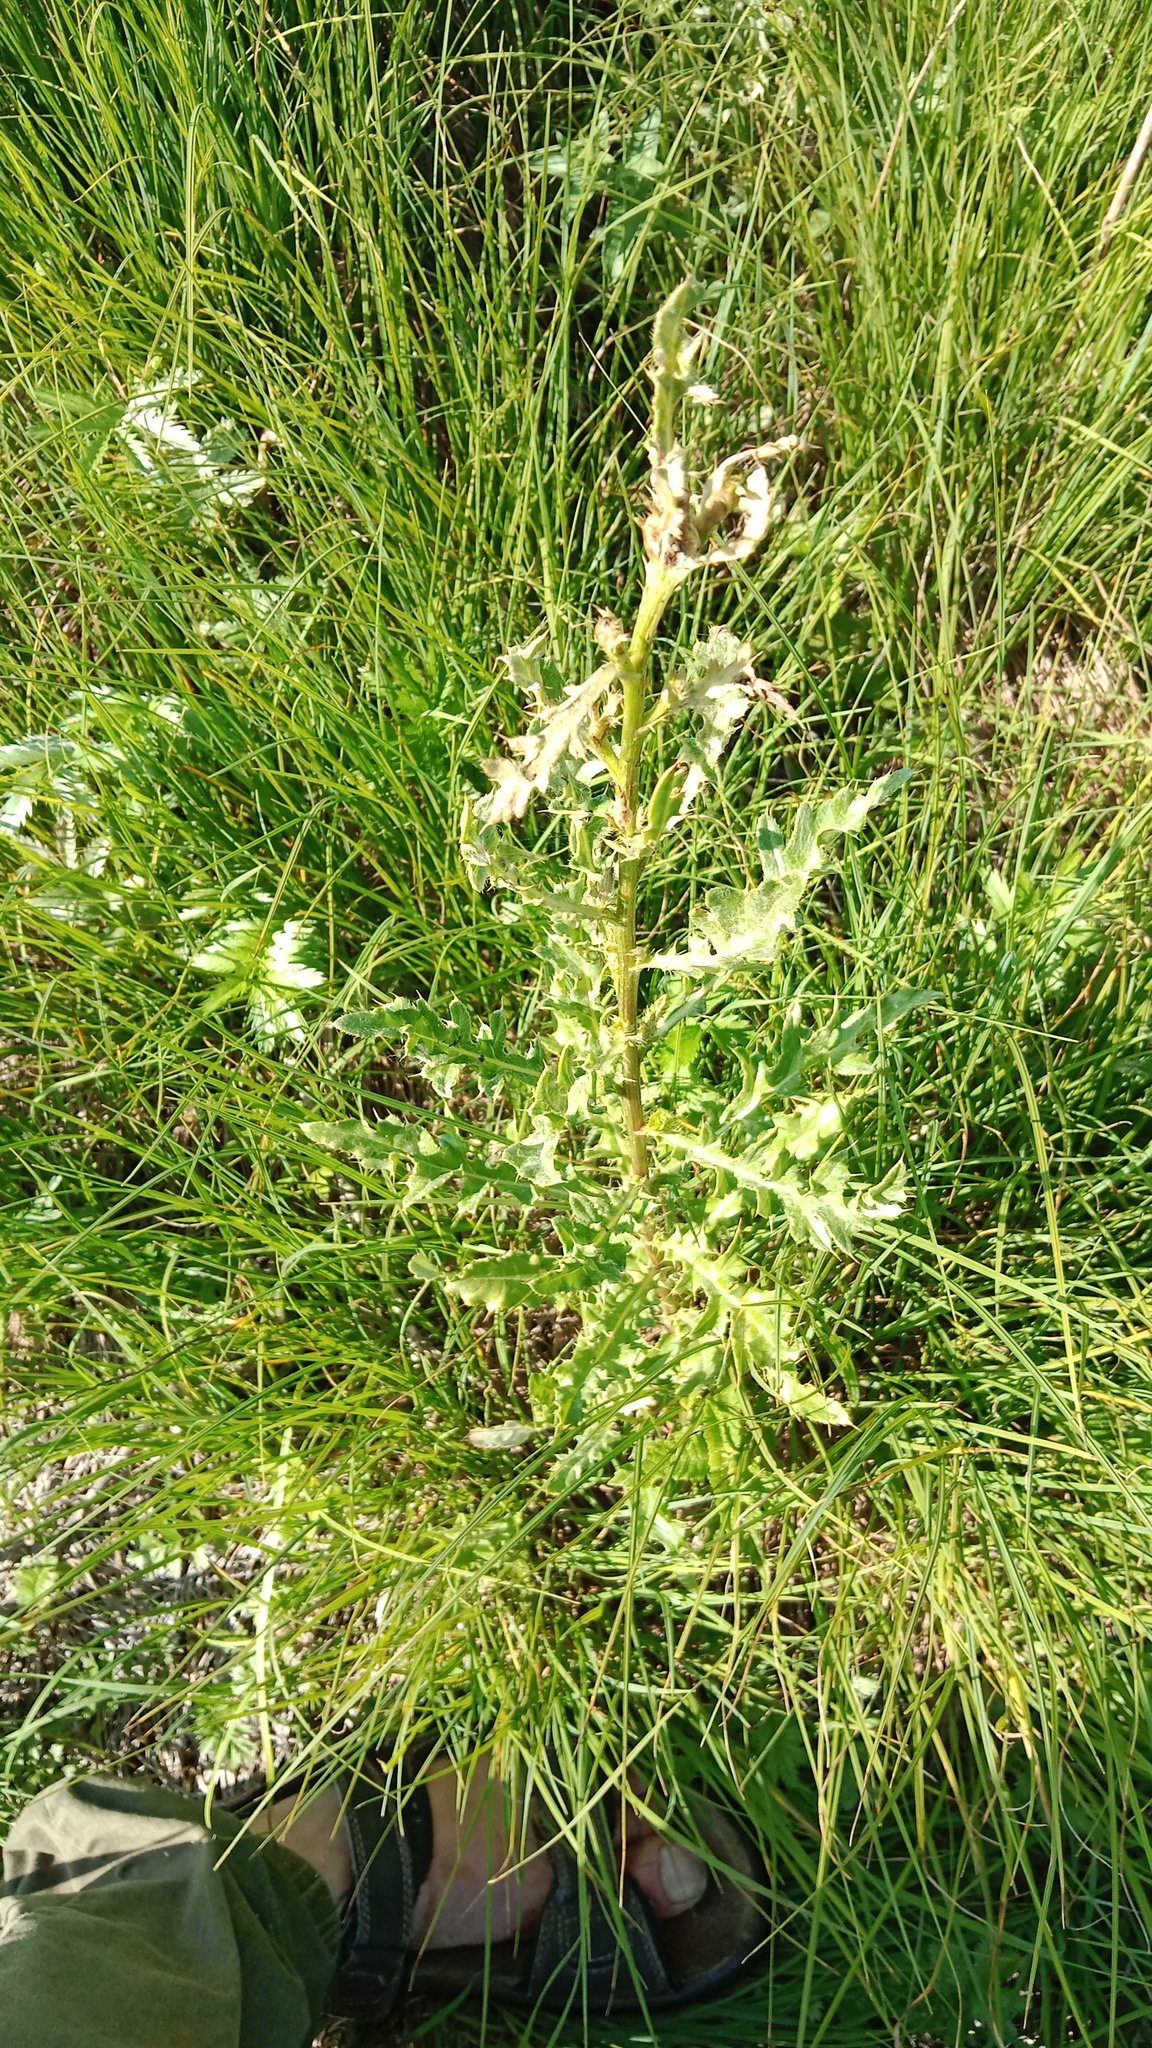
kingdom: Plantae
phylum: Tracheophyta
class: Magnoliopsida
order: Asterales
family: Asteraceae
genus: Cirsium
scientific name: Cirsium arvense
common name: Creeping thistle
